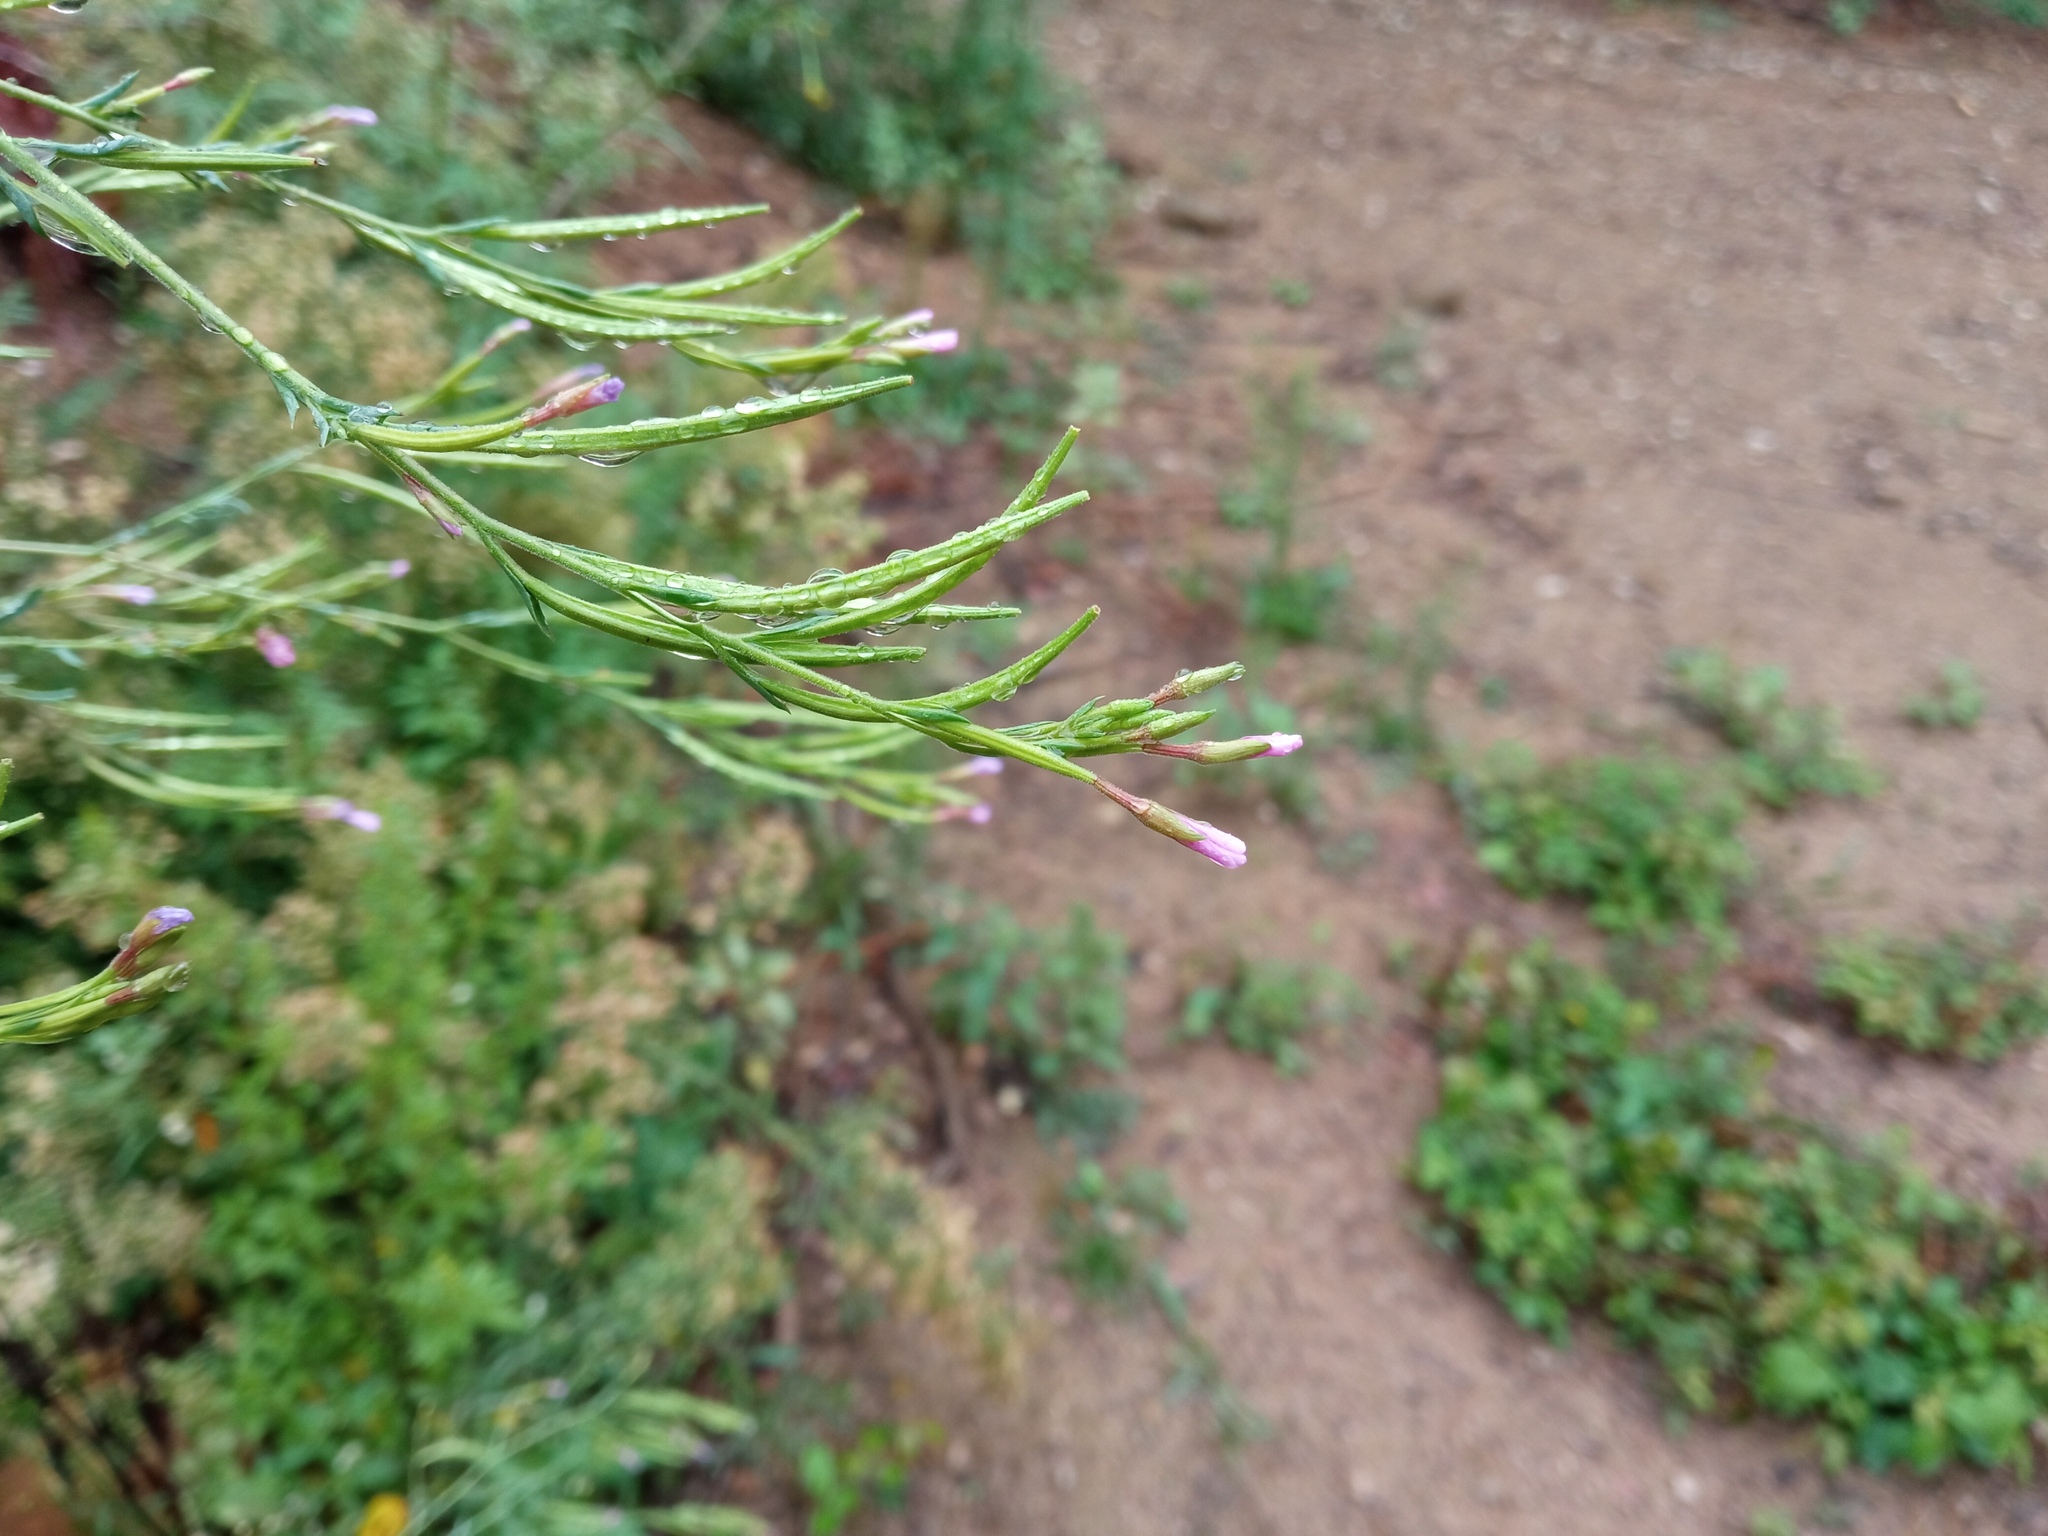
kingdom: Plantae
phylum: Tracheophyta
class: Magnoliopsida
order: Myrtales
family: Onagraceae
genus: Epilobium
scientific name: Epilobium brachycarpum
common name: Annual willowherb
